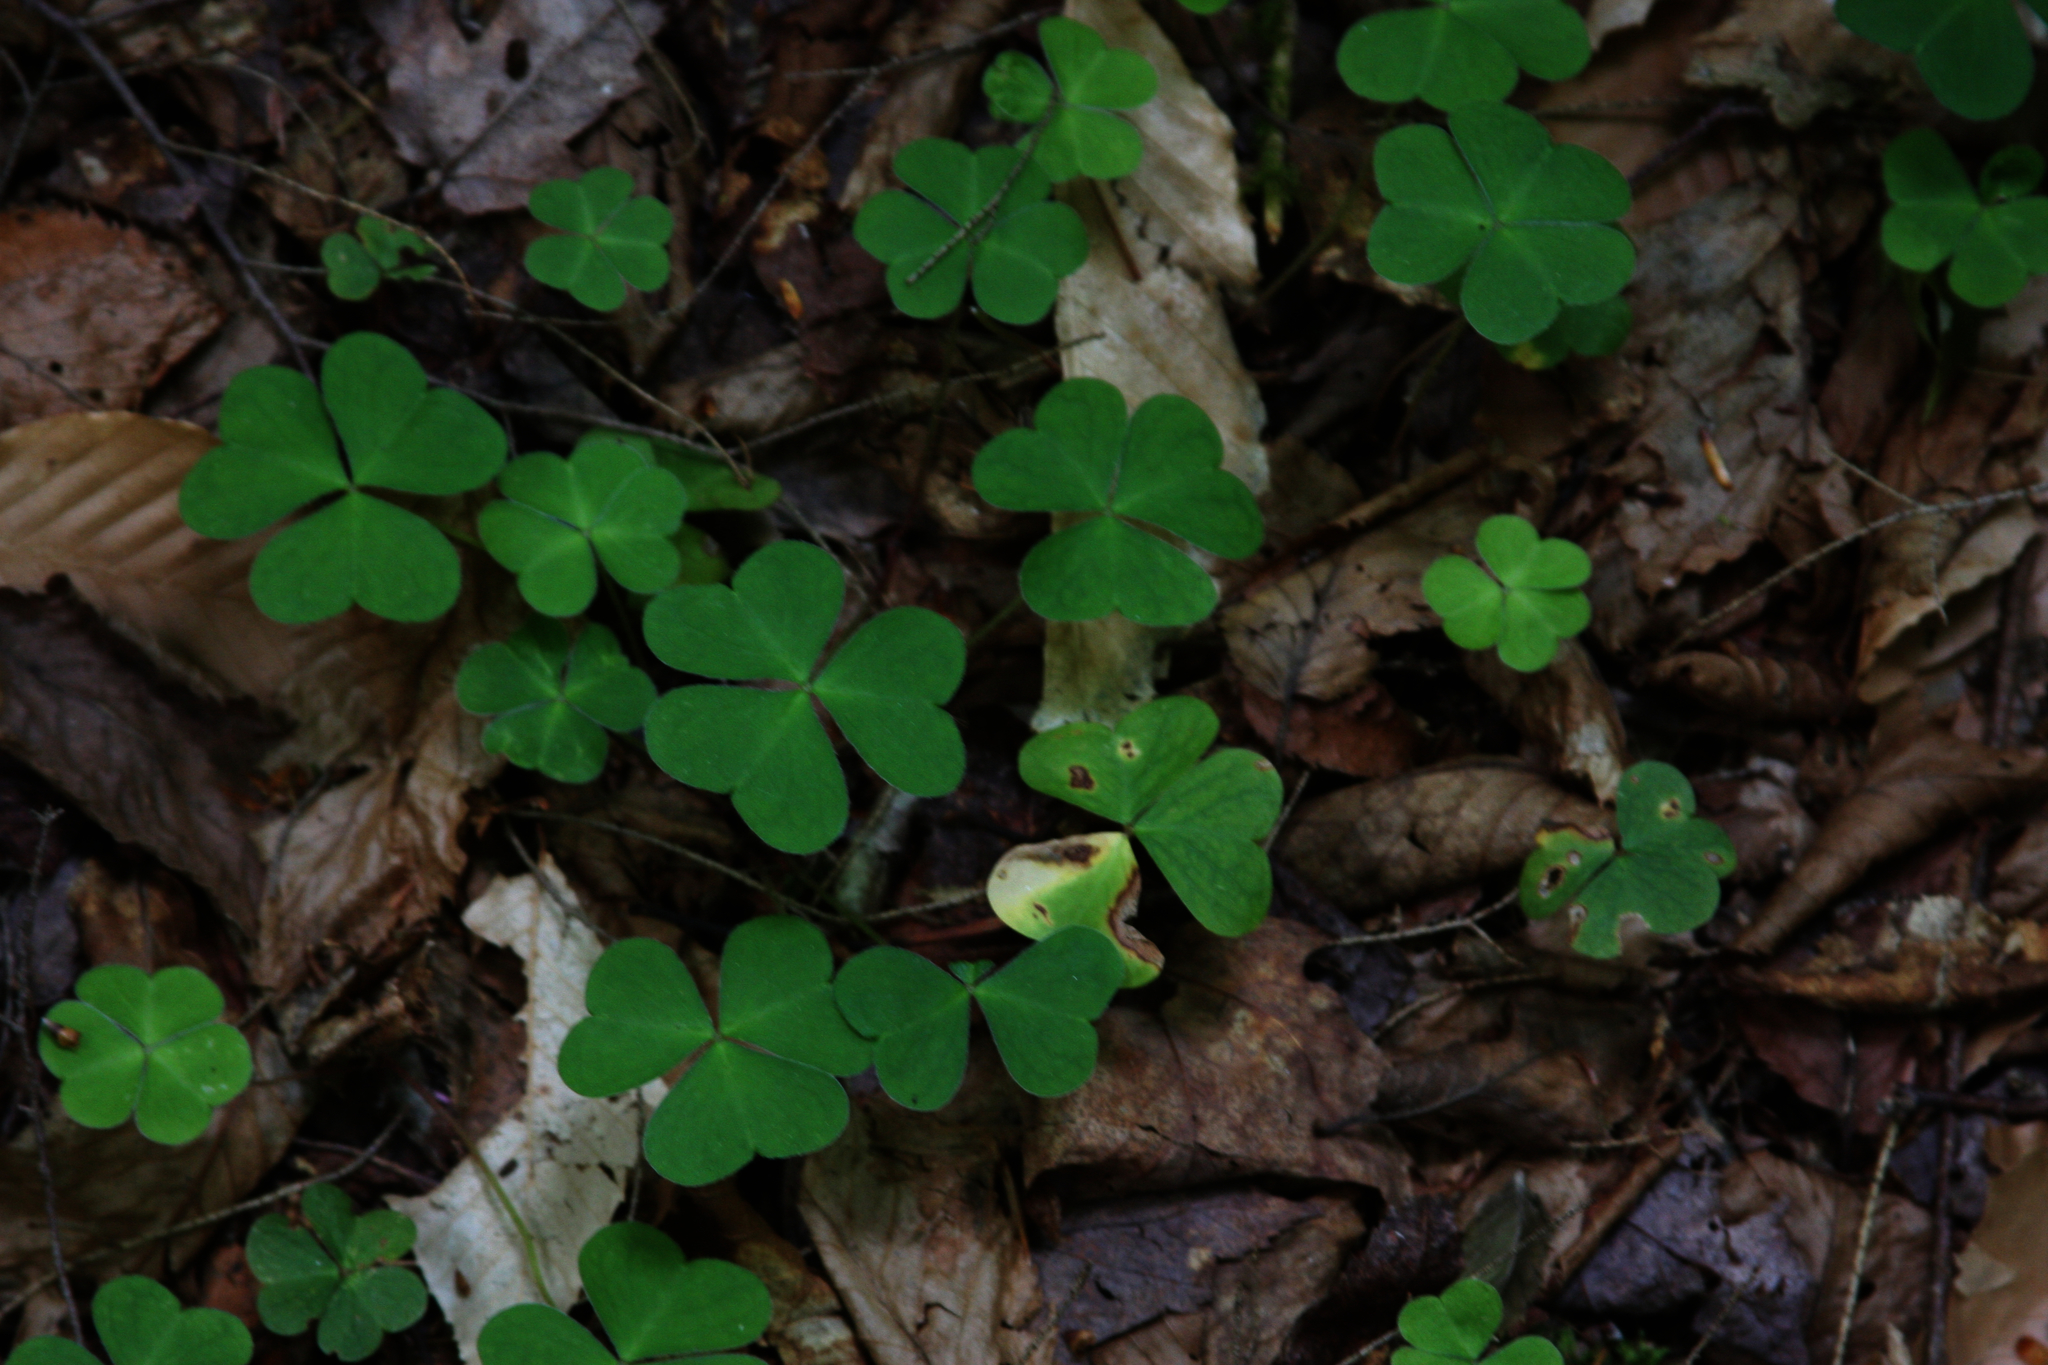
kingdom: Plantae
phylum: Tracheophyta
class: Magnoliopsida
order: Oxalidales
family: Oxalidaceae
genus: Oxalis
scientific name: Oxalis montana
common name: American wood-sorrel
